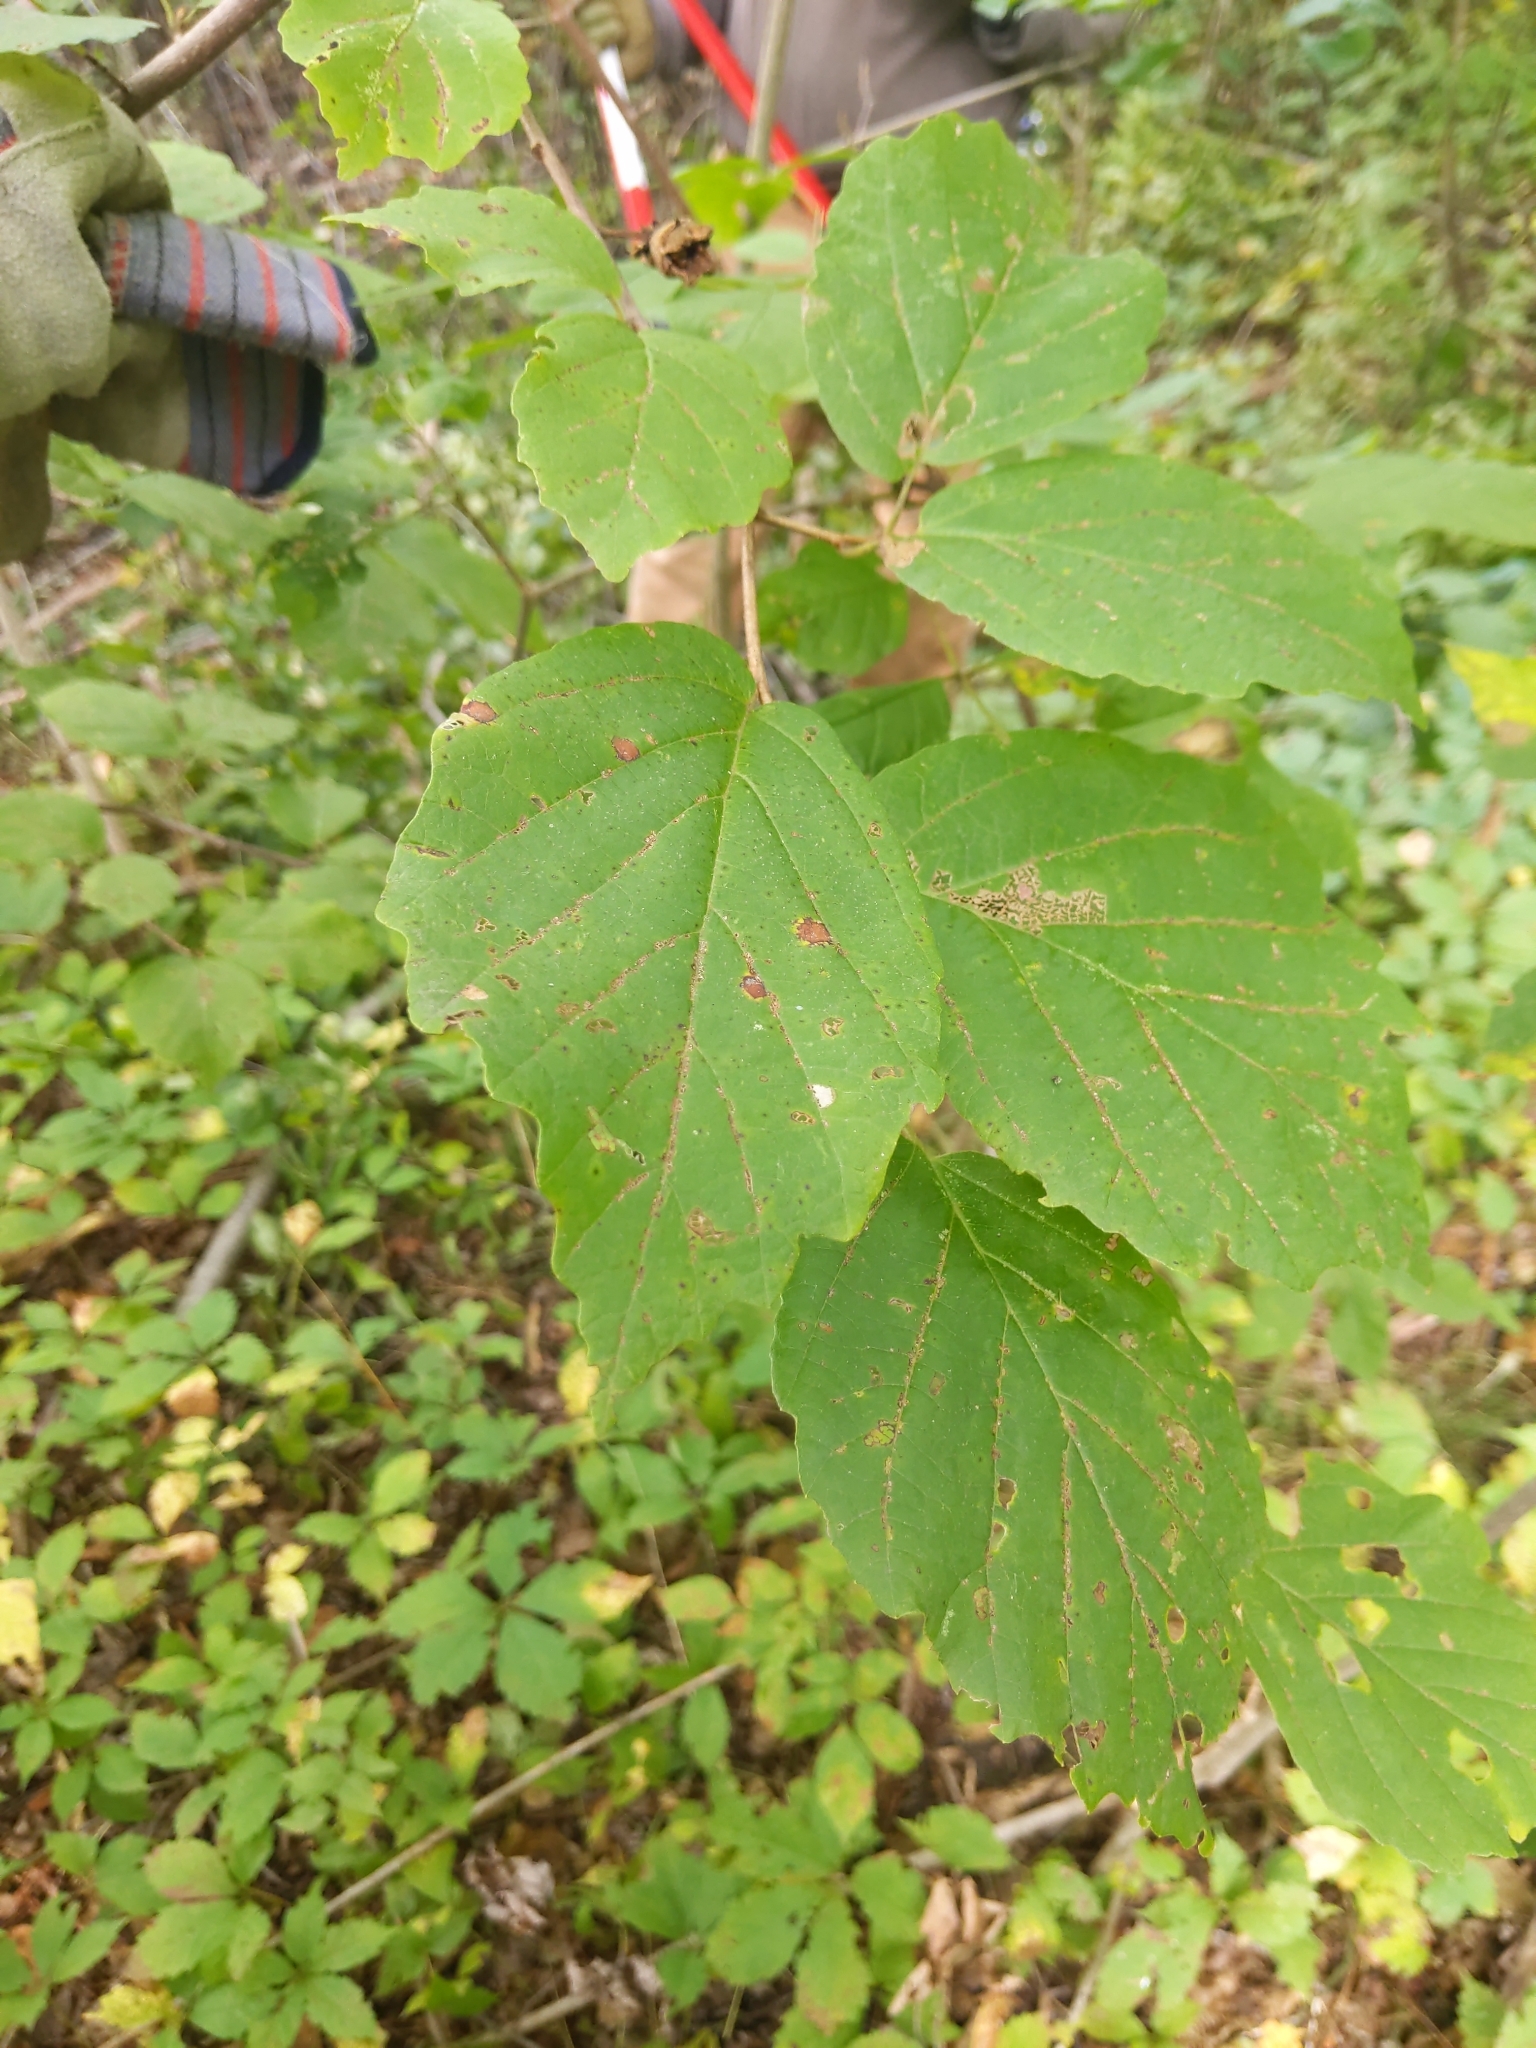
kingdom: Plantae
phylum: Tracheophyta
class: Magnoliopsida
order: Saxifragales
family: Hamamelidaceae
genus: Hamamelis
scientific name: Hamamelis virginiana
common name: Witch-hazel
